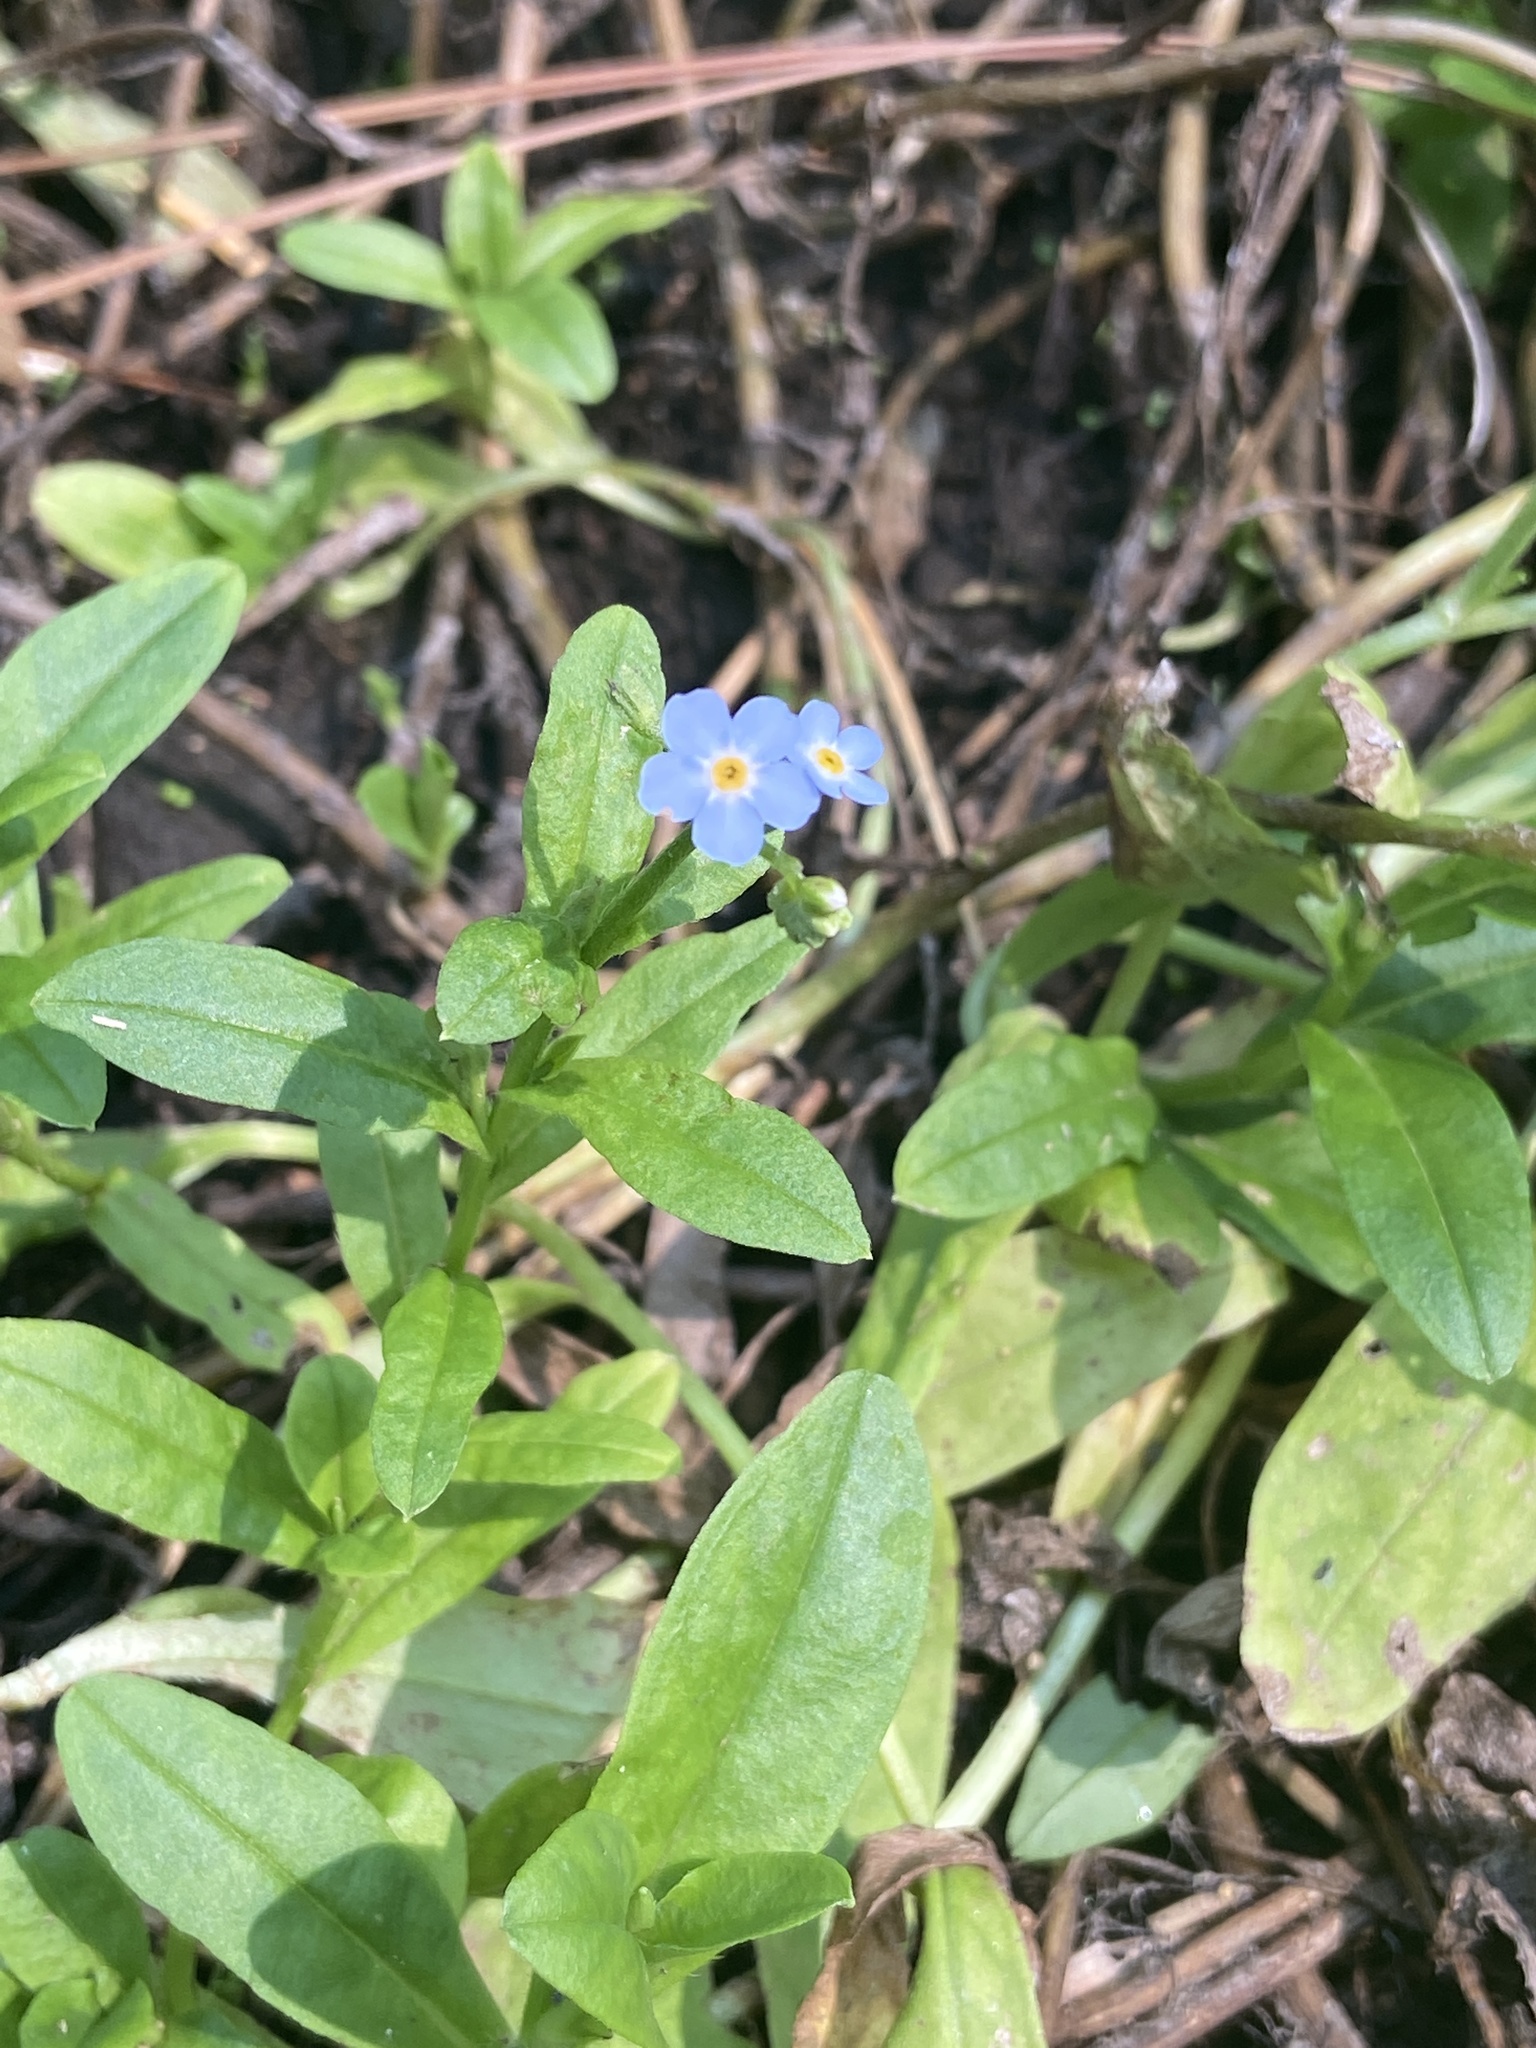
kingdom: Plantae
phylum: Tracheophyta
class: Magnoliopsida
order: Boraginales
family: Boraginaceae
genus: Myosotis
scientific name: Myosotis scorpioides
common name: Water forget-me-not
